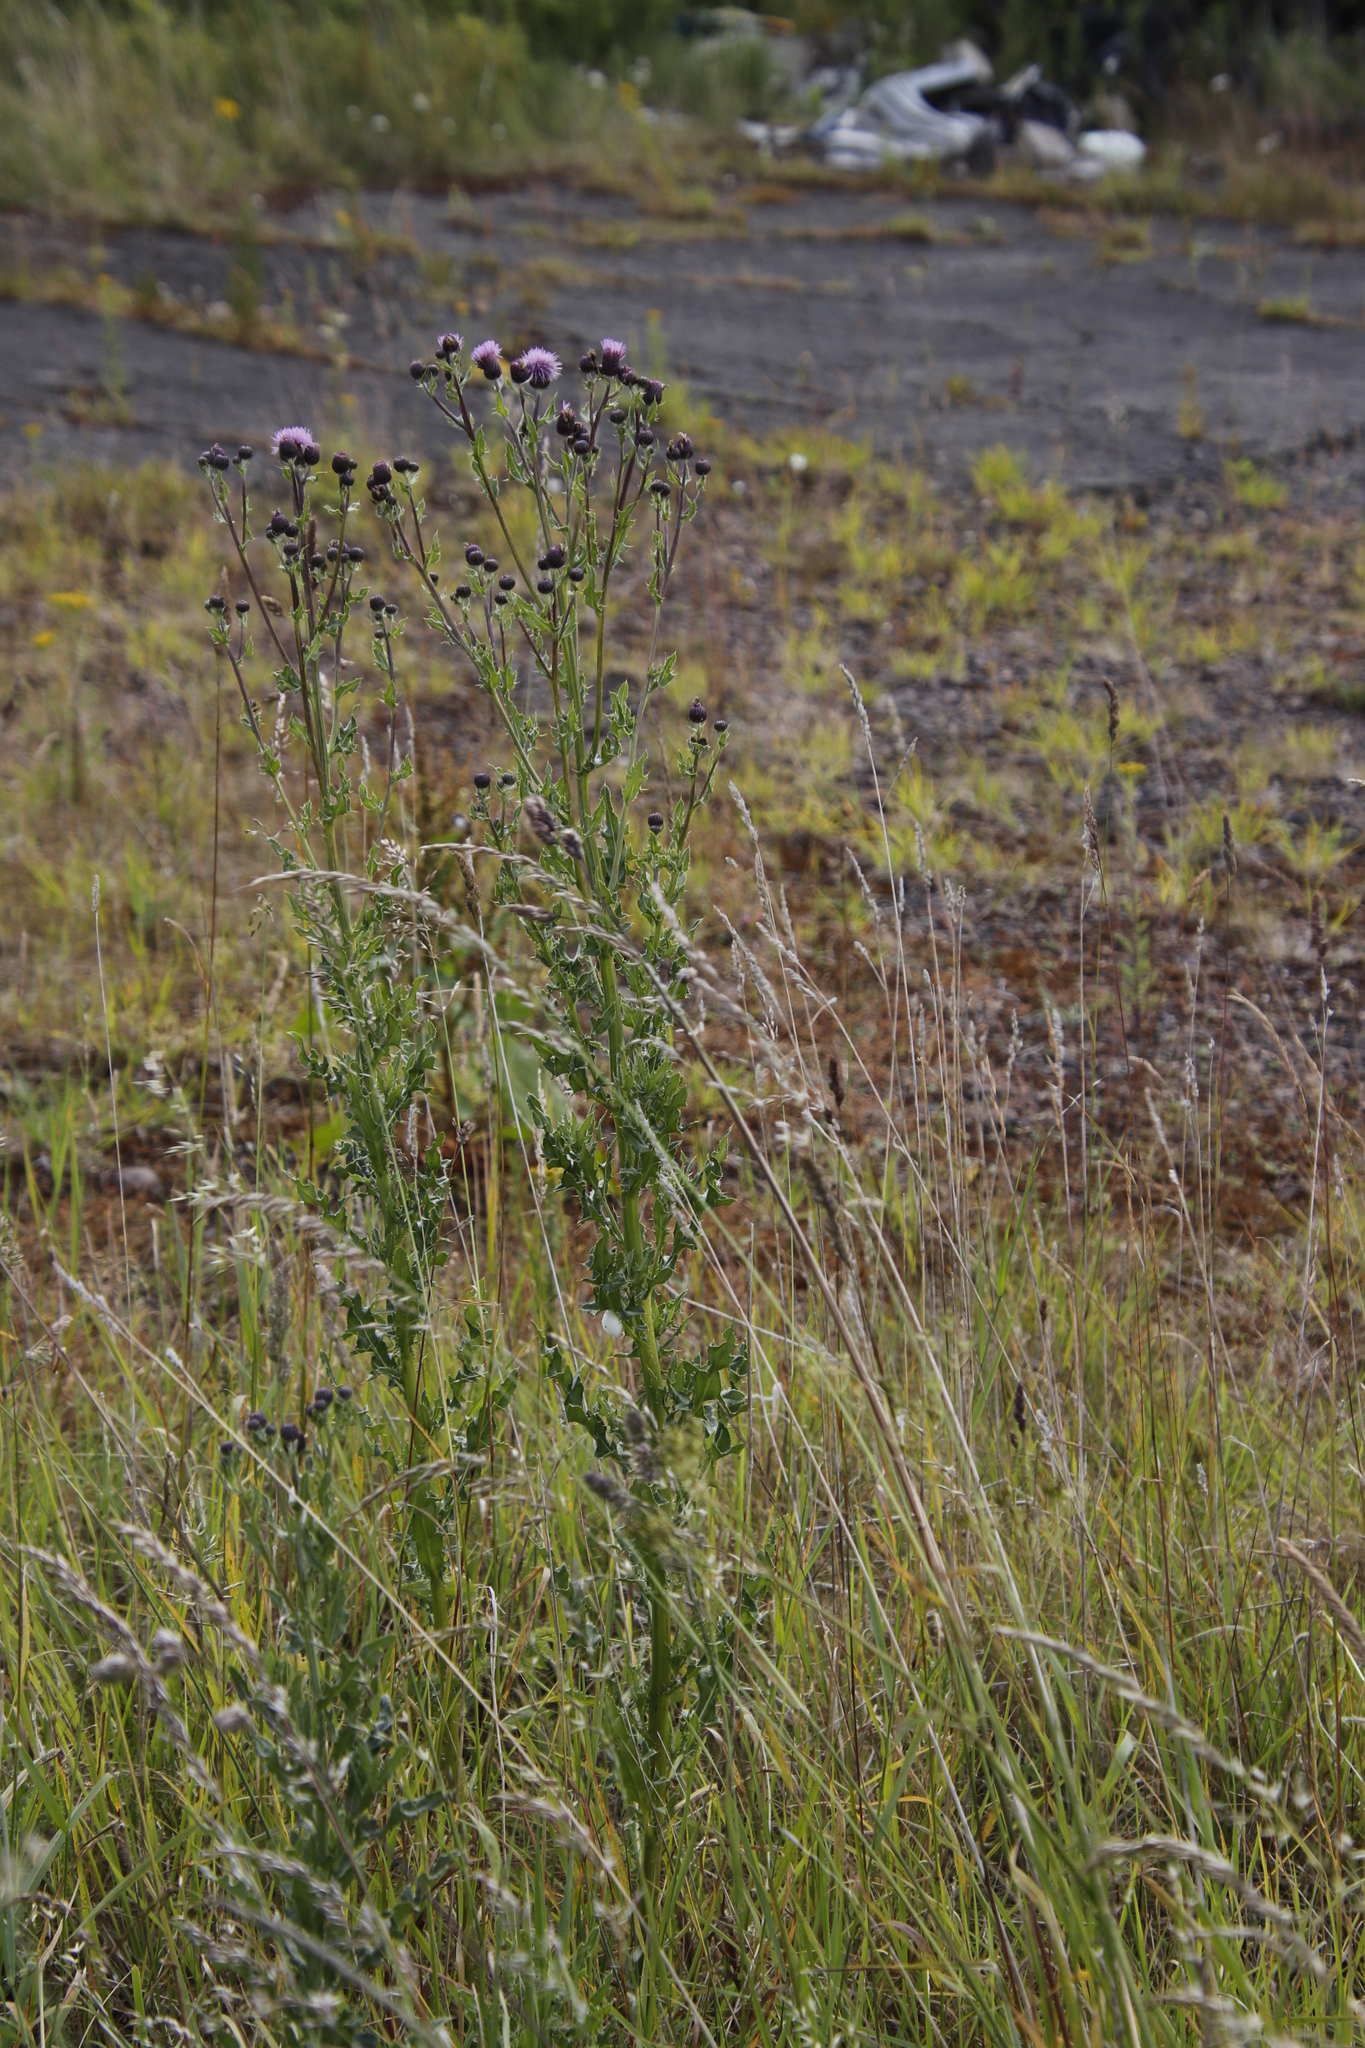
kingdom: Plantae
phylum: Tracheophyta
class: Magnoliopsida
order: Asterales
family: Asteraceae
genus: Cirsium
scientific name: Cirsium arvense
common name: Creeping thistle
